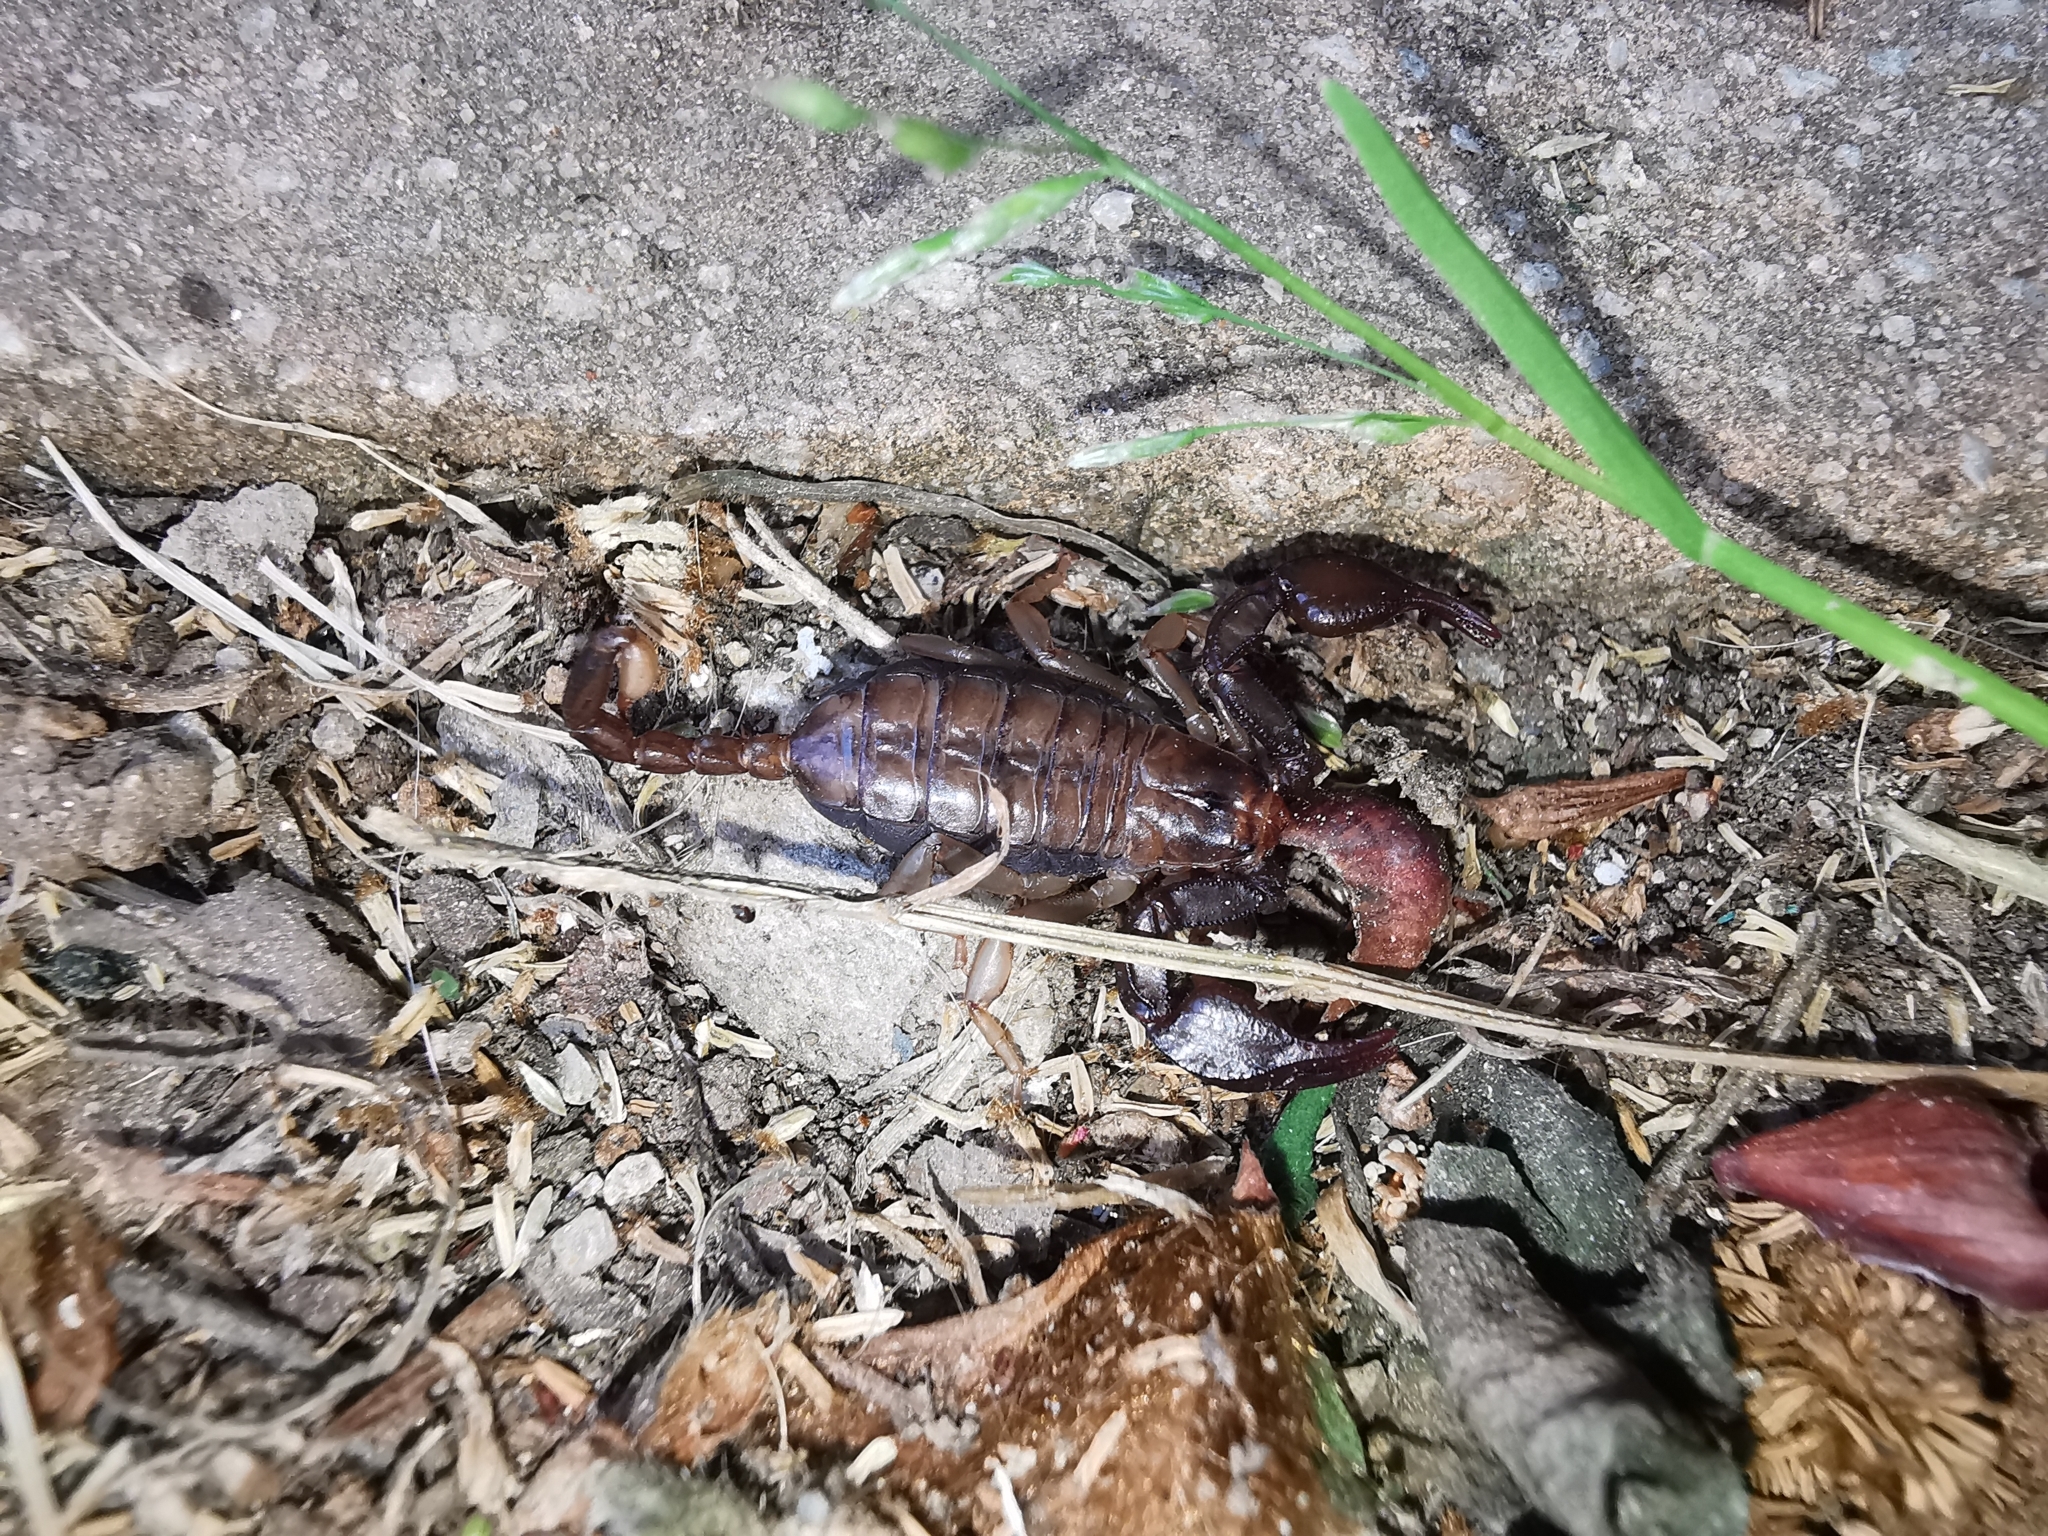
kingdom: Animalia
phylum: Arthropoda
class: Arachnida
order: Scorpiones
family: Euscorpiidae
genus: Euscorpius
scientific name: Euscorpius
